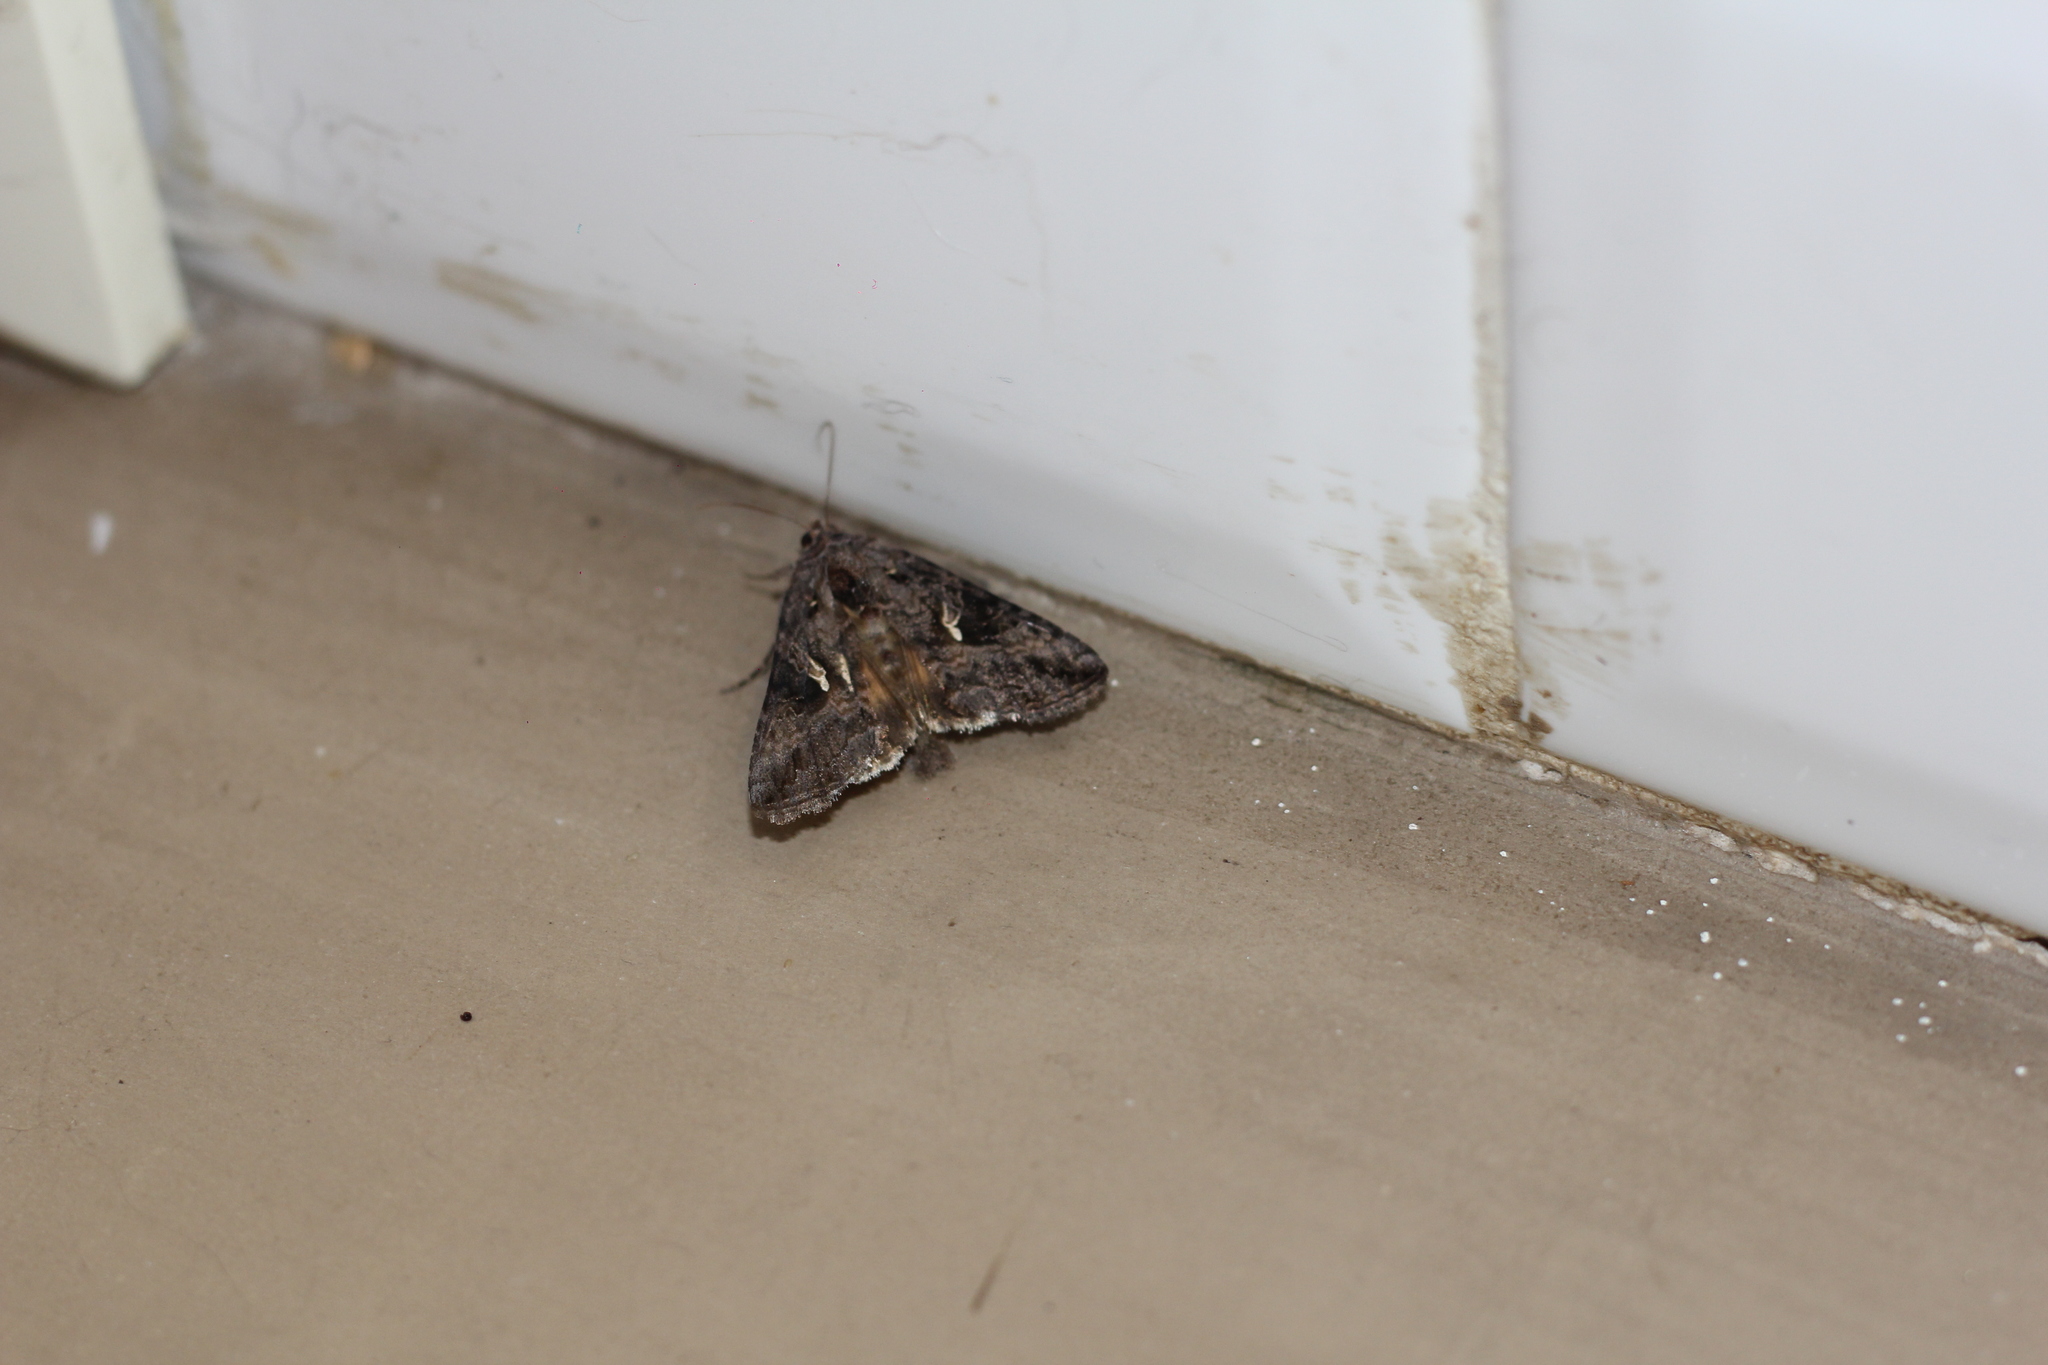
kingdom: Animalia
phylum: Arthropoda
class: Insecta
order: Lepidoptera
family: Noctuidae
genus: Rachiplusia
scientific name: Rachiplusia nu
